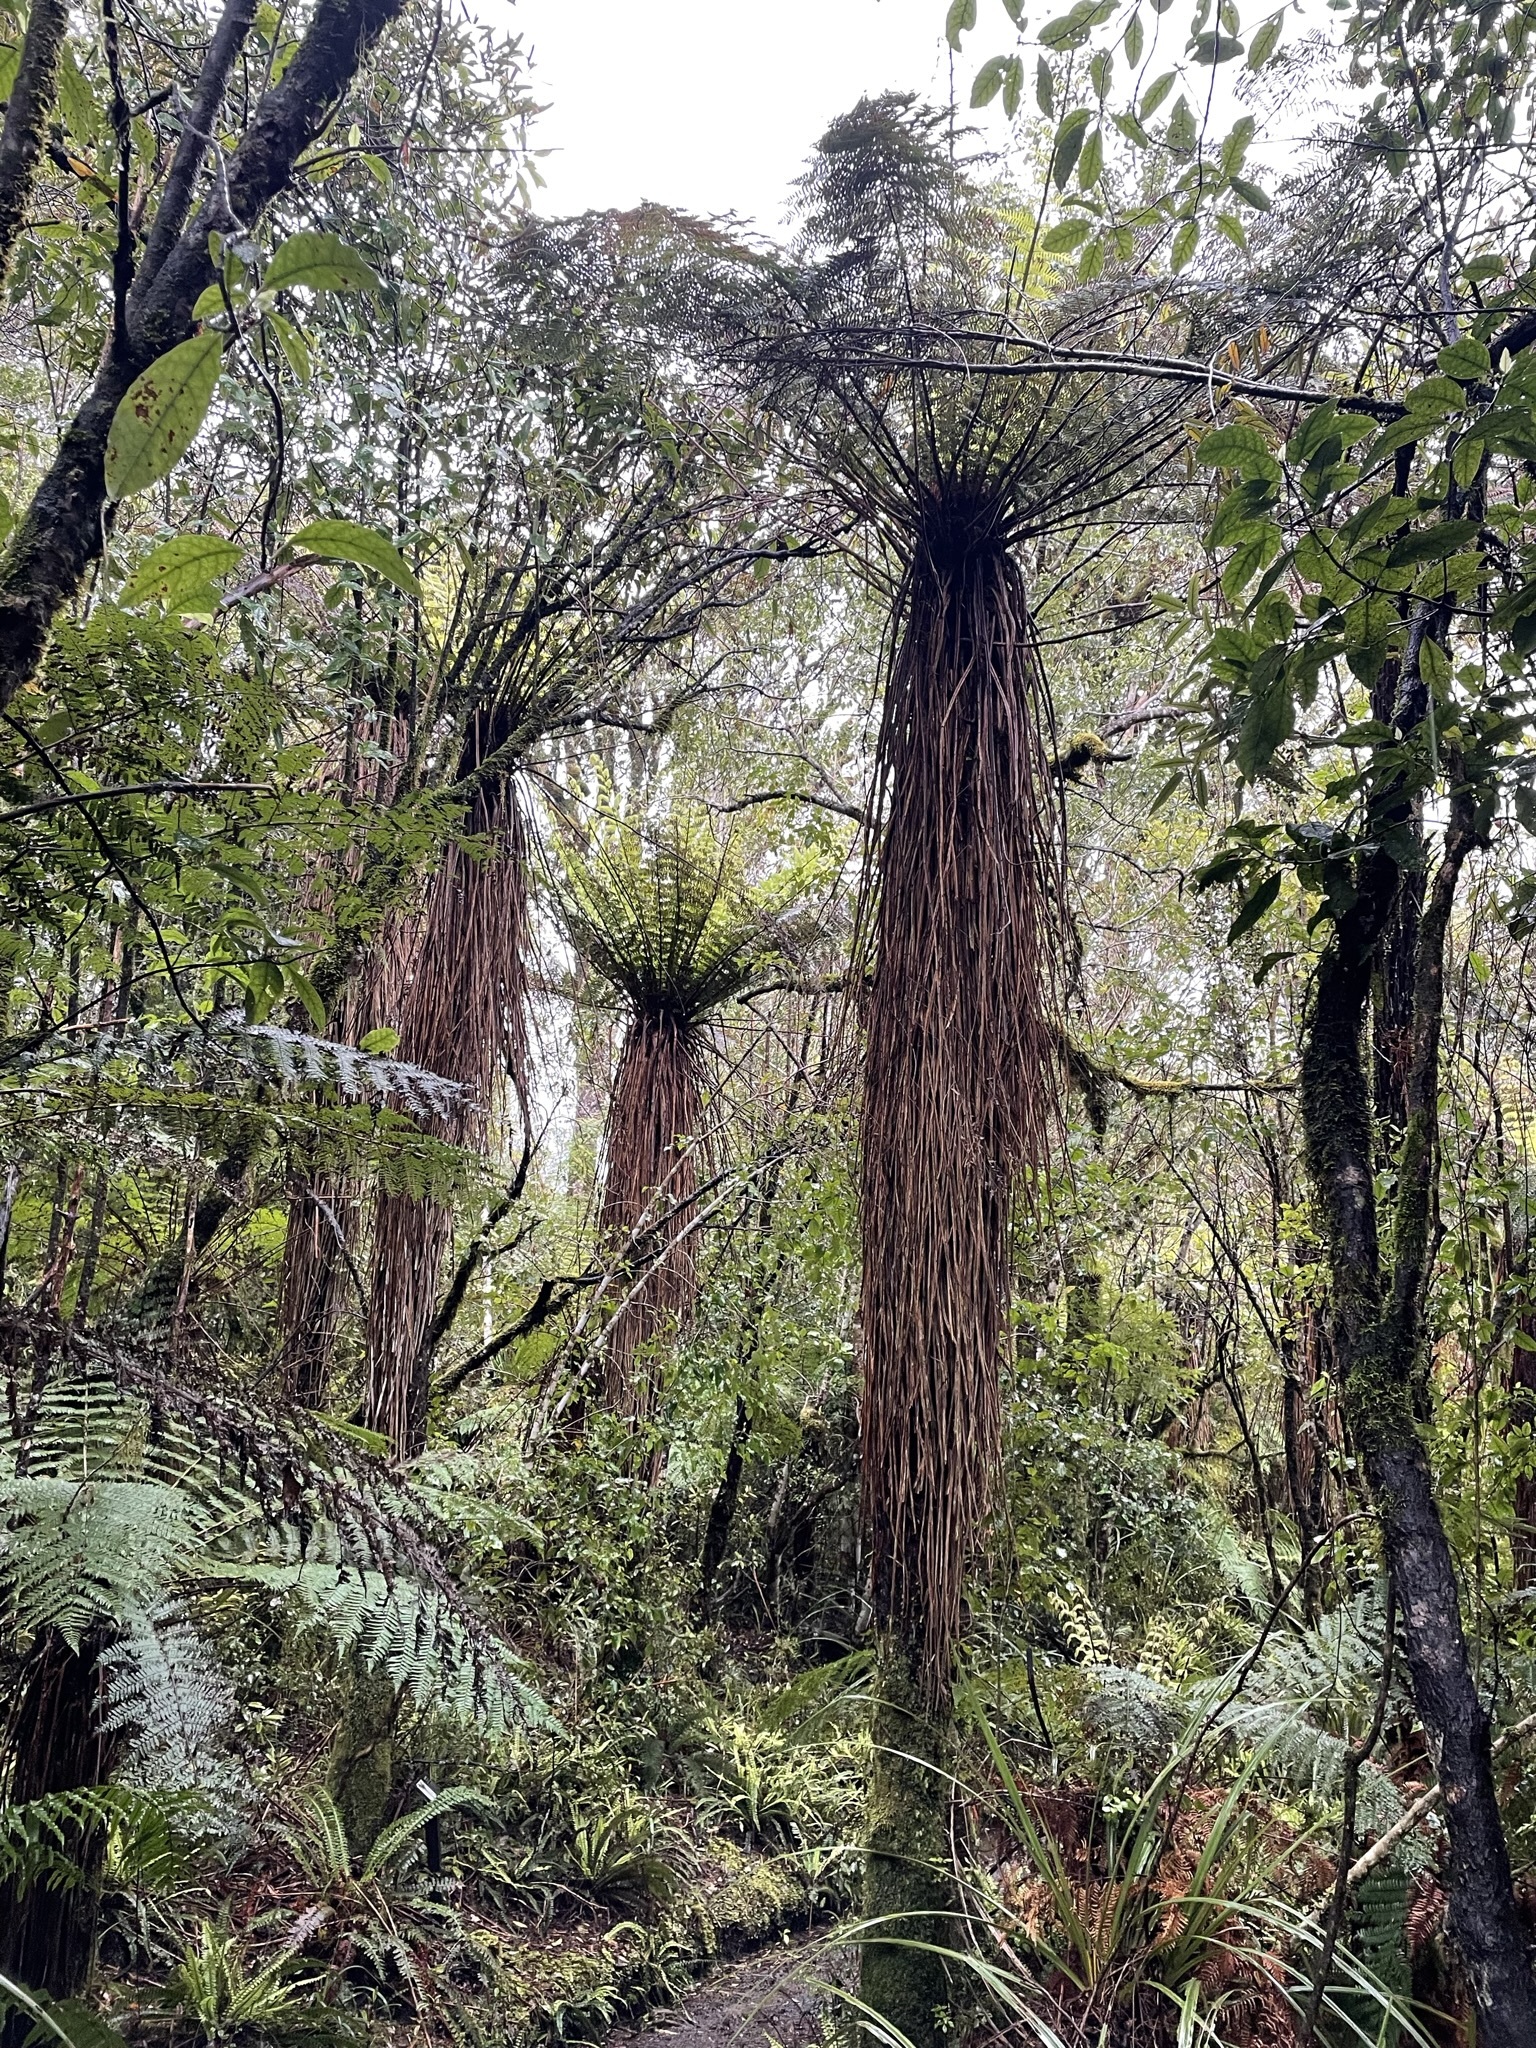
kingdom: Plantae
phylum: Tracheophyta
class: Polypodiopsida
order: Cyatheales
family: Cyatheaceae
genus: Alsophila
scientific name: Alsophila smithii
